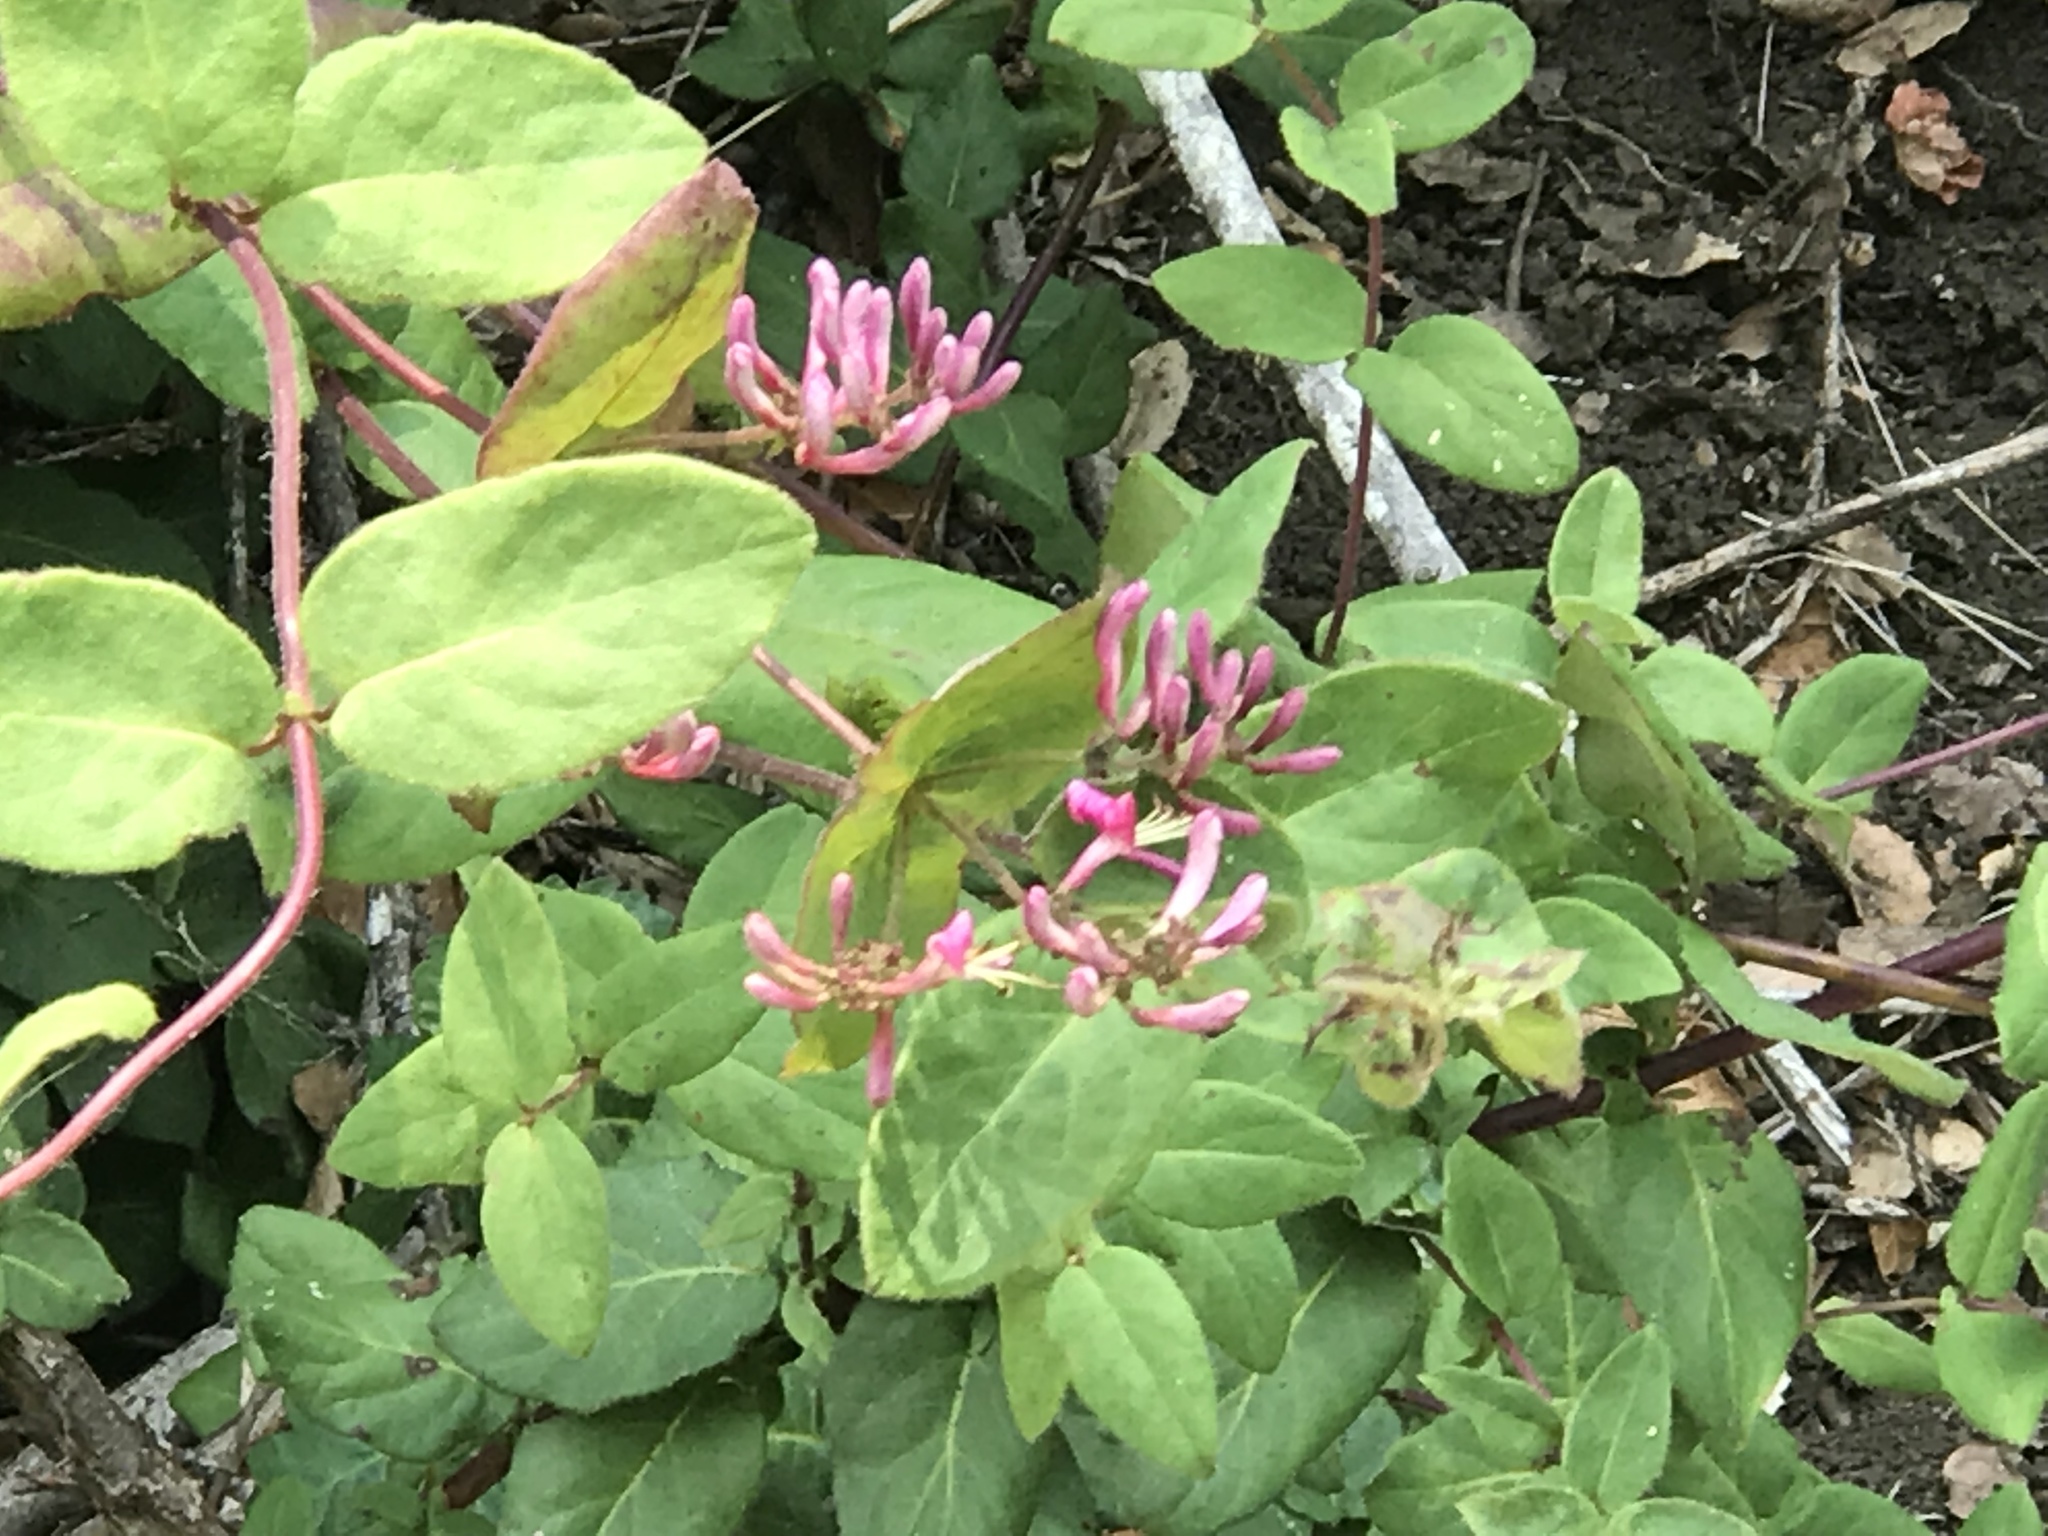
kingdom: Plantae
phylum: Tracheophyta
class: Magnoliopsida
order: Dipsacales
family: Caprifoliaceae
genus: Lonicera
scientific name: Lonicera hispidula
